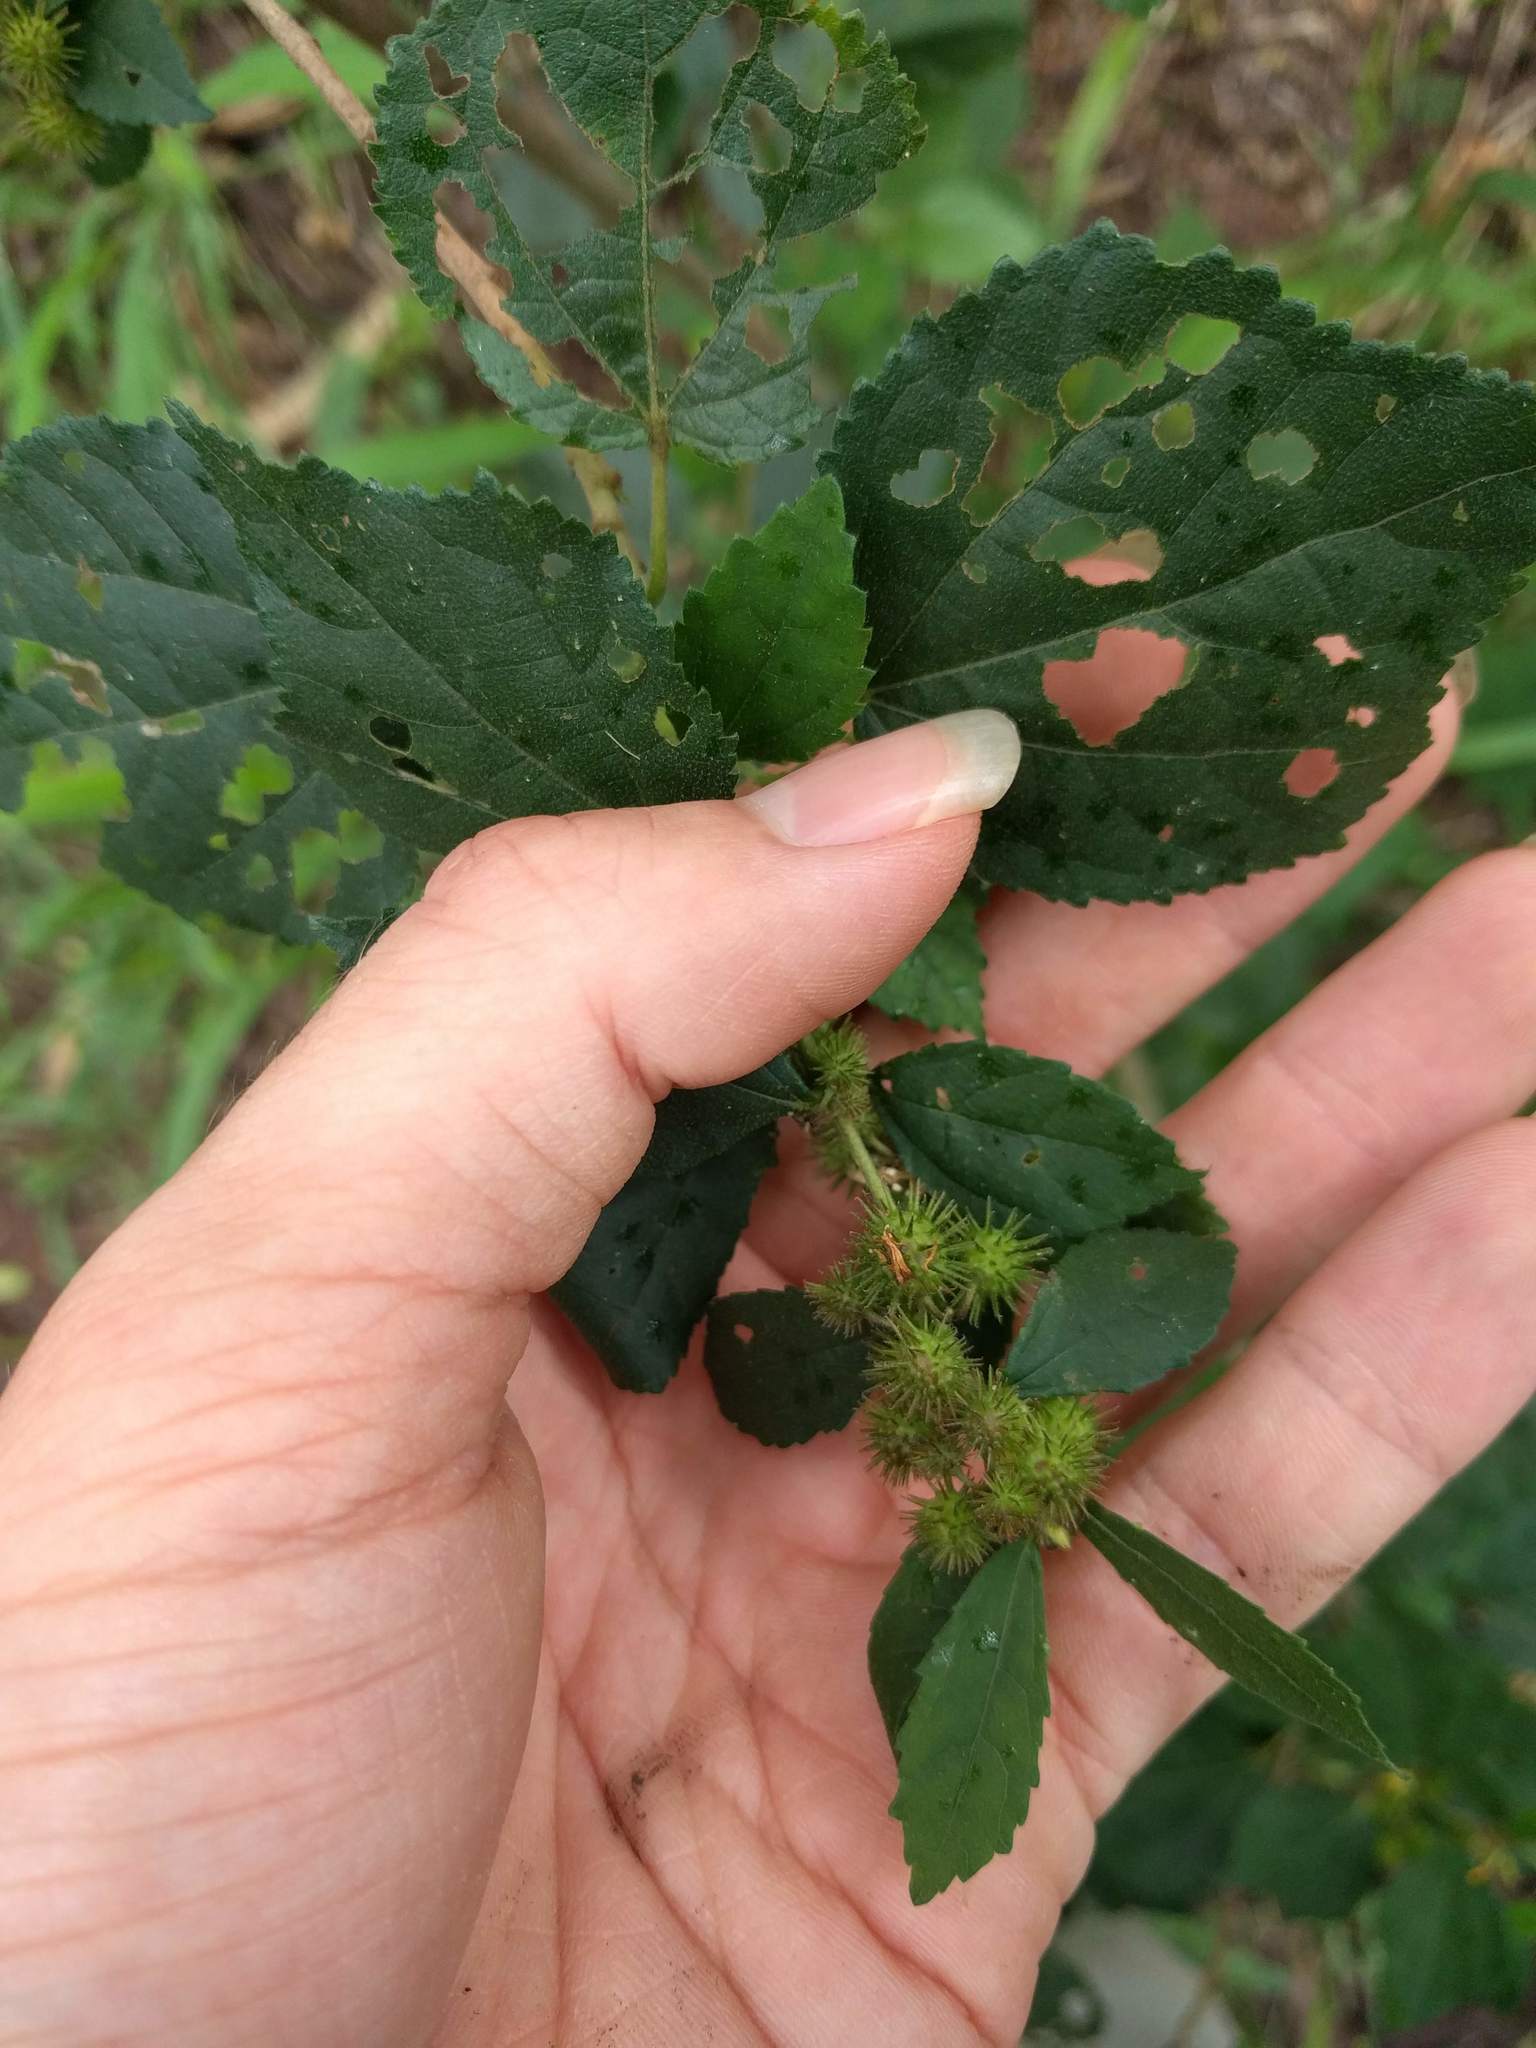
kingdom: Plantae
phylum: Tracheophyta
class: Magnoliopsida
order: Malvales
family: Malvaceae
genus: Triumfetta
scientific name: Triumfetta semitriloba
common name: Sacramento burbark
